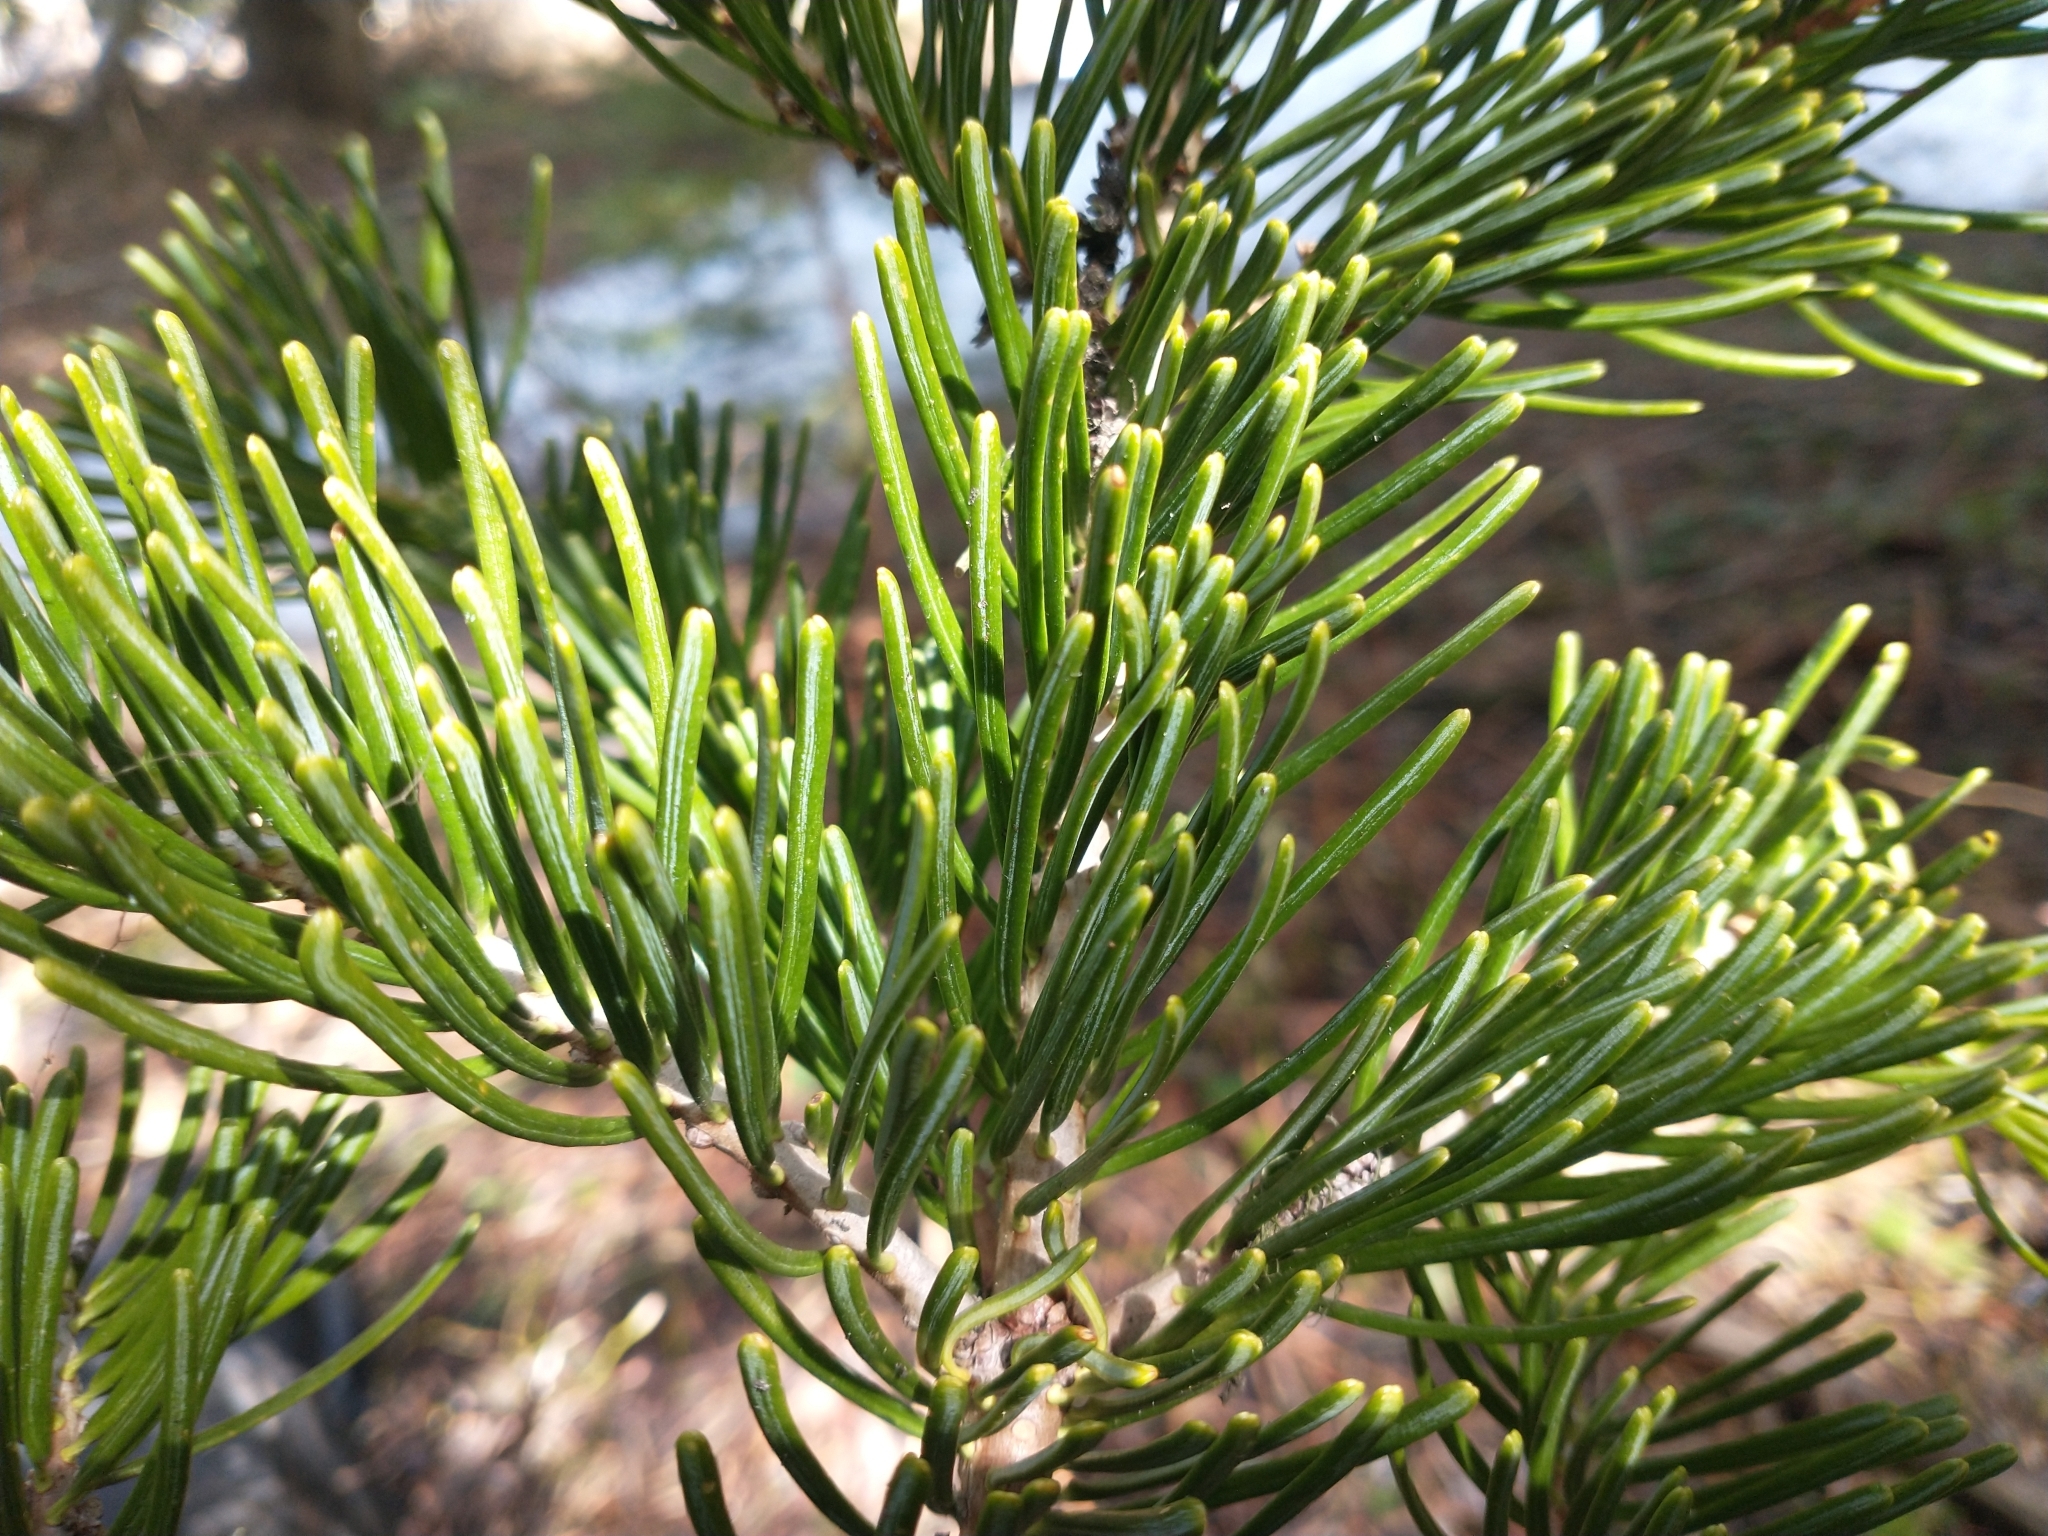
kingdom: Plantae
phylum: Tracheophyta
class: Pinopsida
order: Pinales
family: Pinaceae
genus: Abies
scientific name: Abies concolor
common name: Colorado fir
